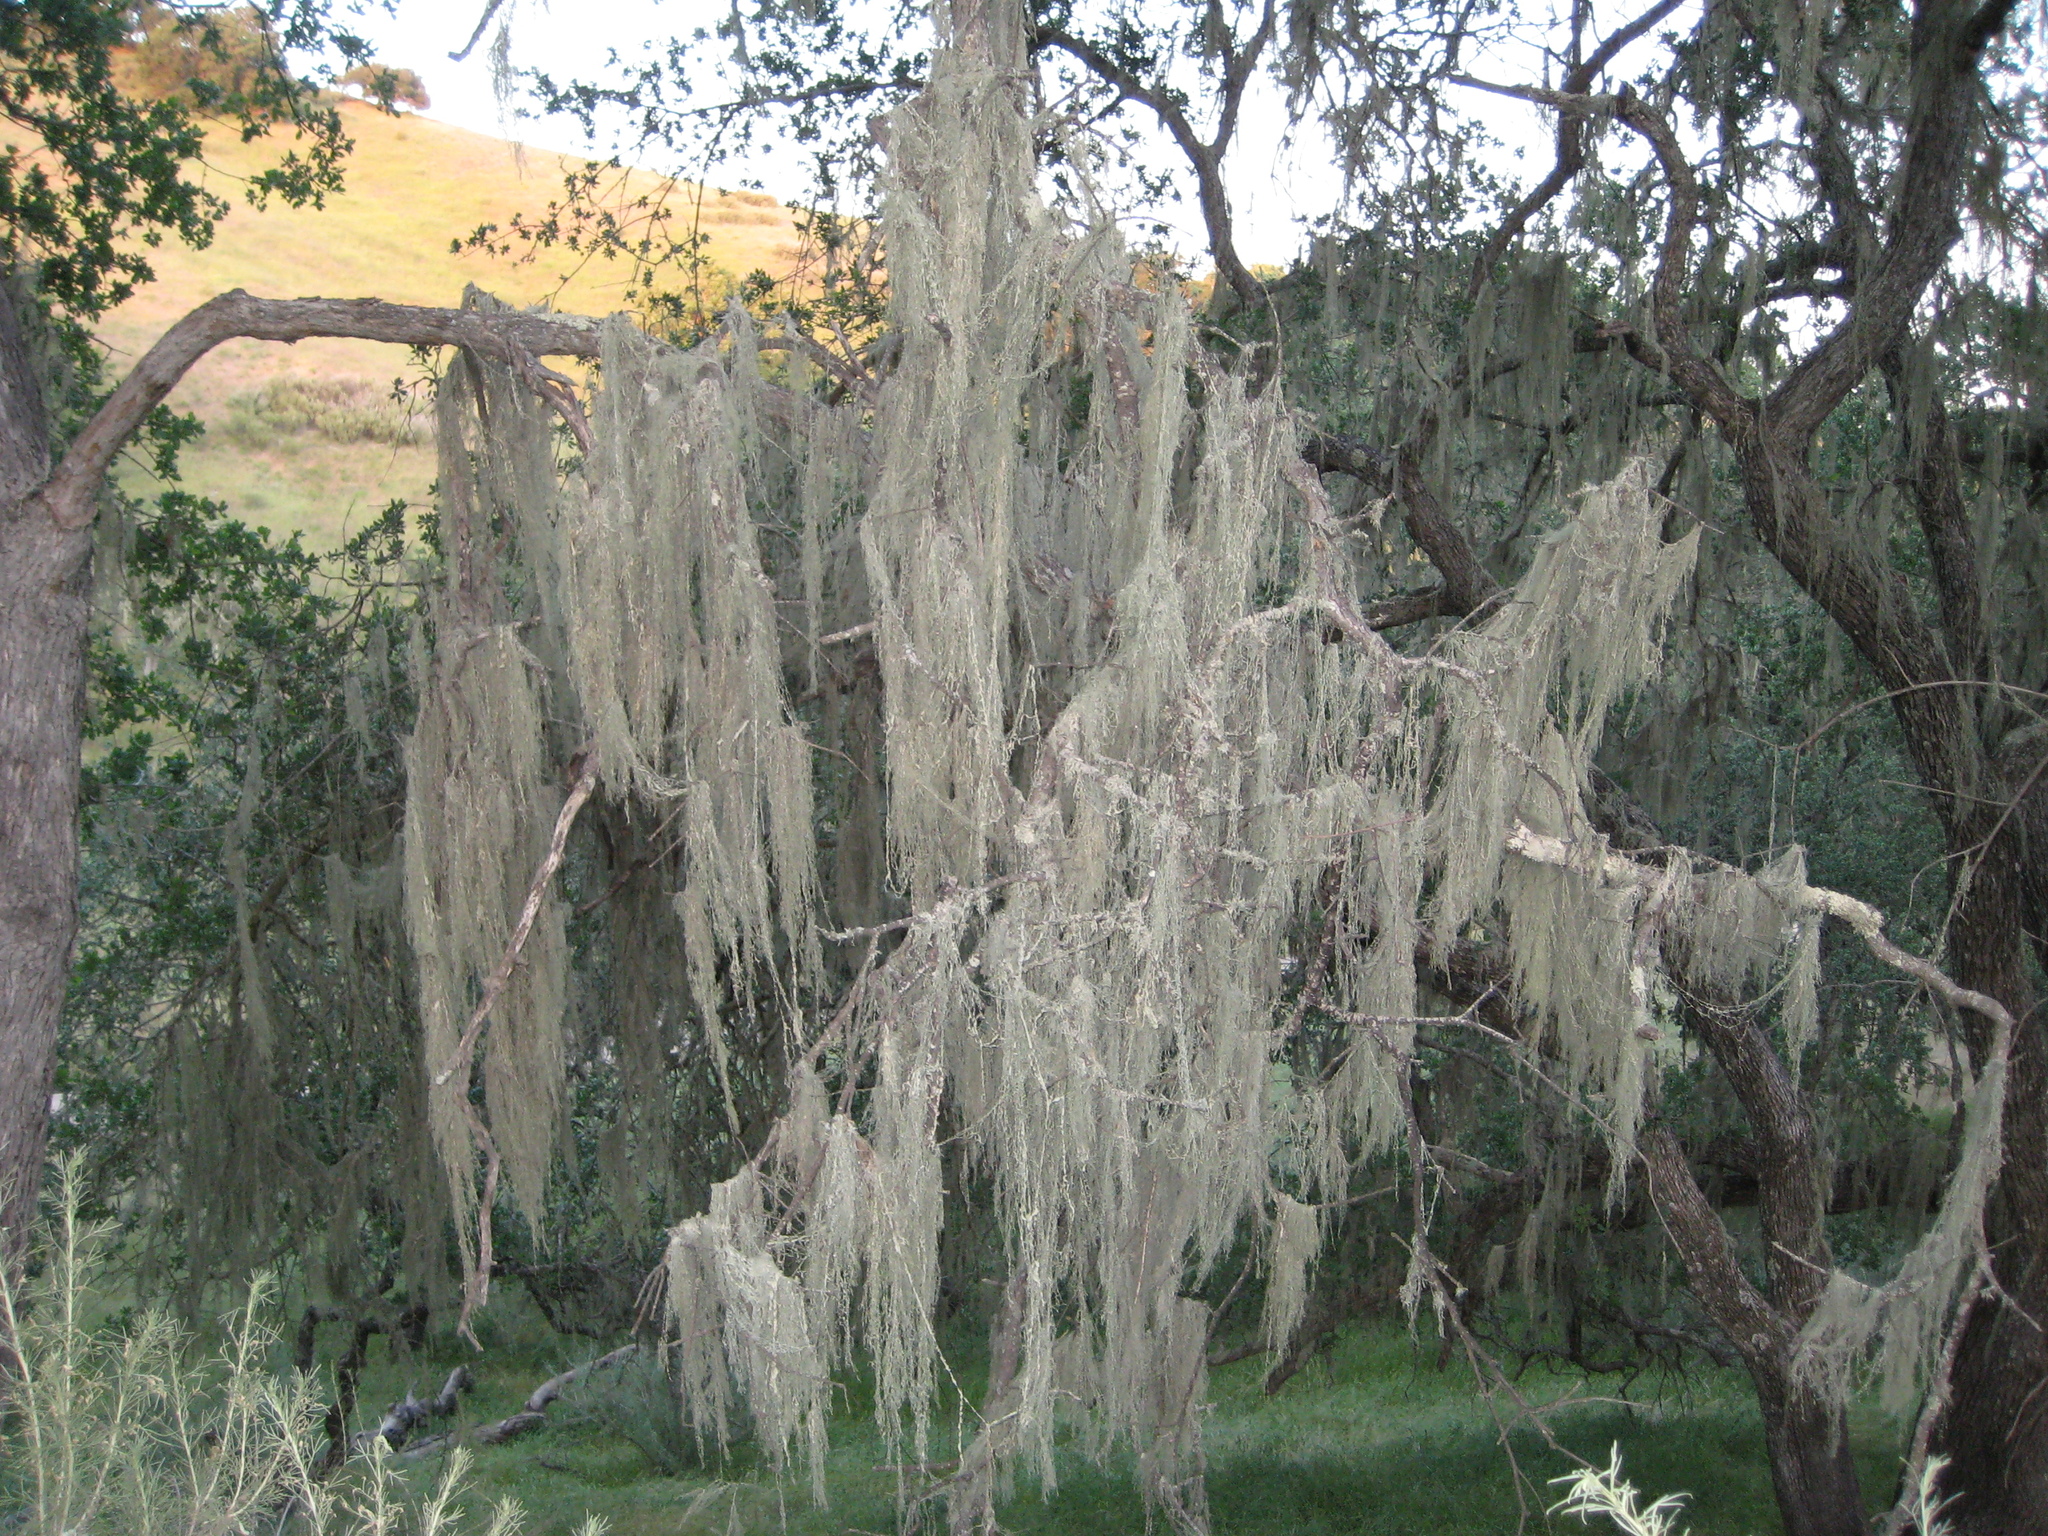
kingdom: Fungi
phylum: Ascomycota
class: Lecanoromycetes
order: Lecanorales
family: Ramalinaceae
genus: Ramalina
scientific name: Ramalina menziesii
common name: Lace lichen
